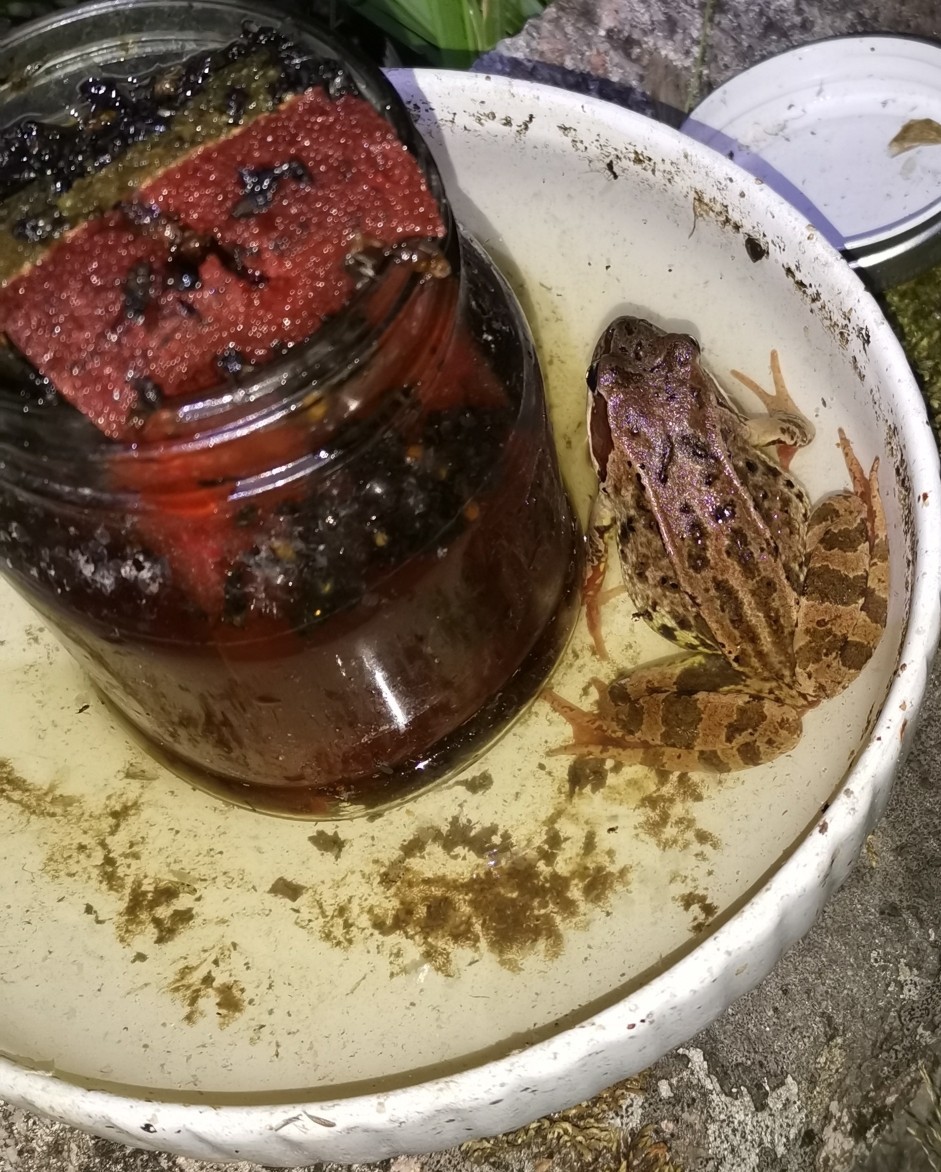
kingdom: Animalia
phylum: Chordata
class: Amphibia
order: Anura
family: Ranidae
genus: Rana
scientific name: Rana temporaria
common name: Common frog
